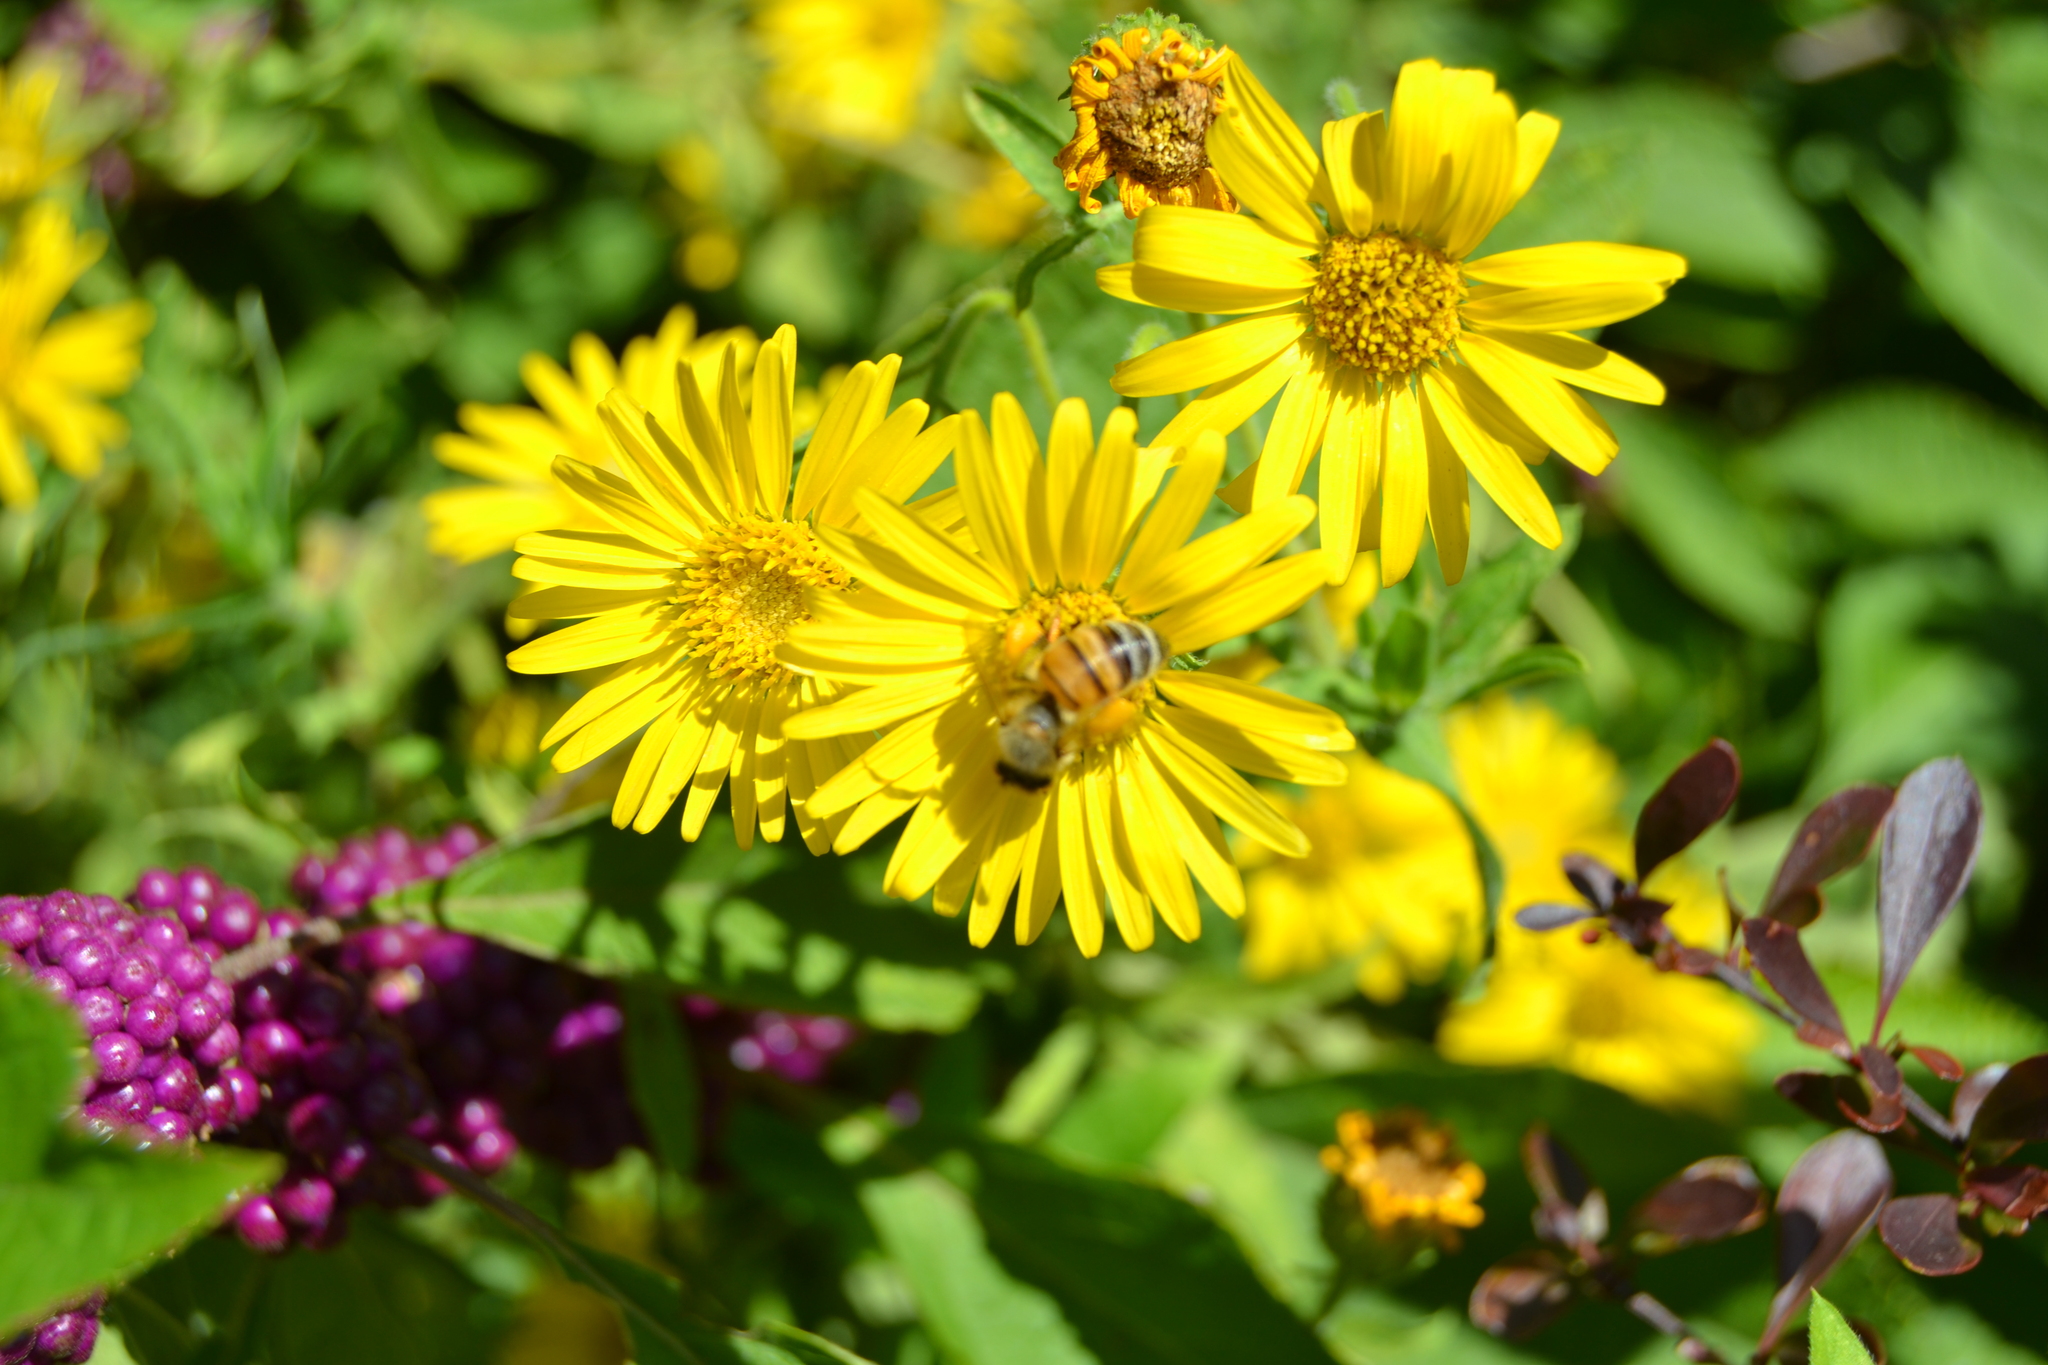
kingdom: Animalia
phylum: Arthropoda
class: Insecta
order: Hymenoptera
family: Apidae
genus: Apis
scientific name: Apis mellifera
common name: Honey bee
